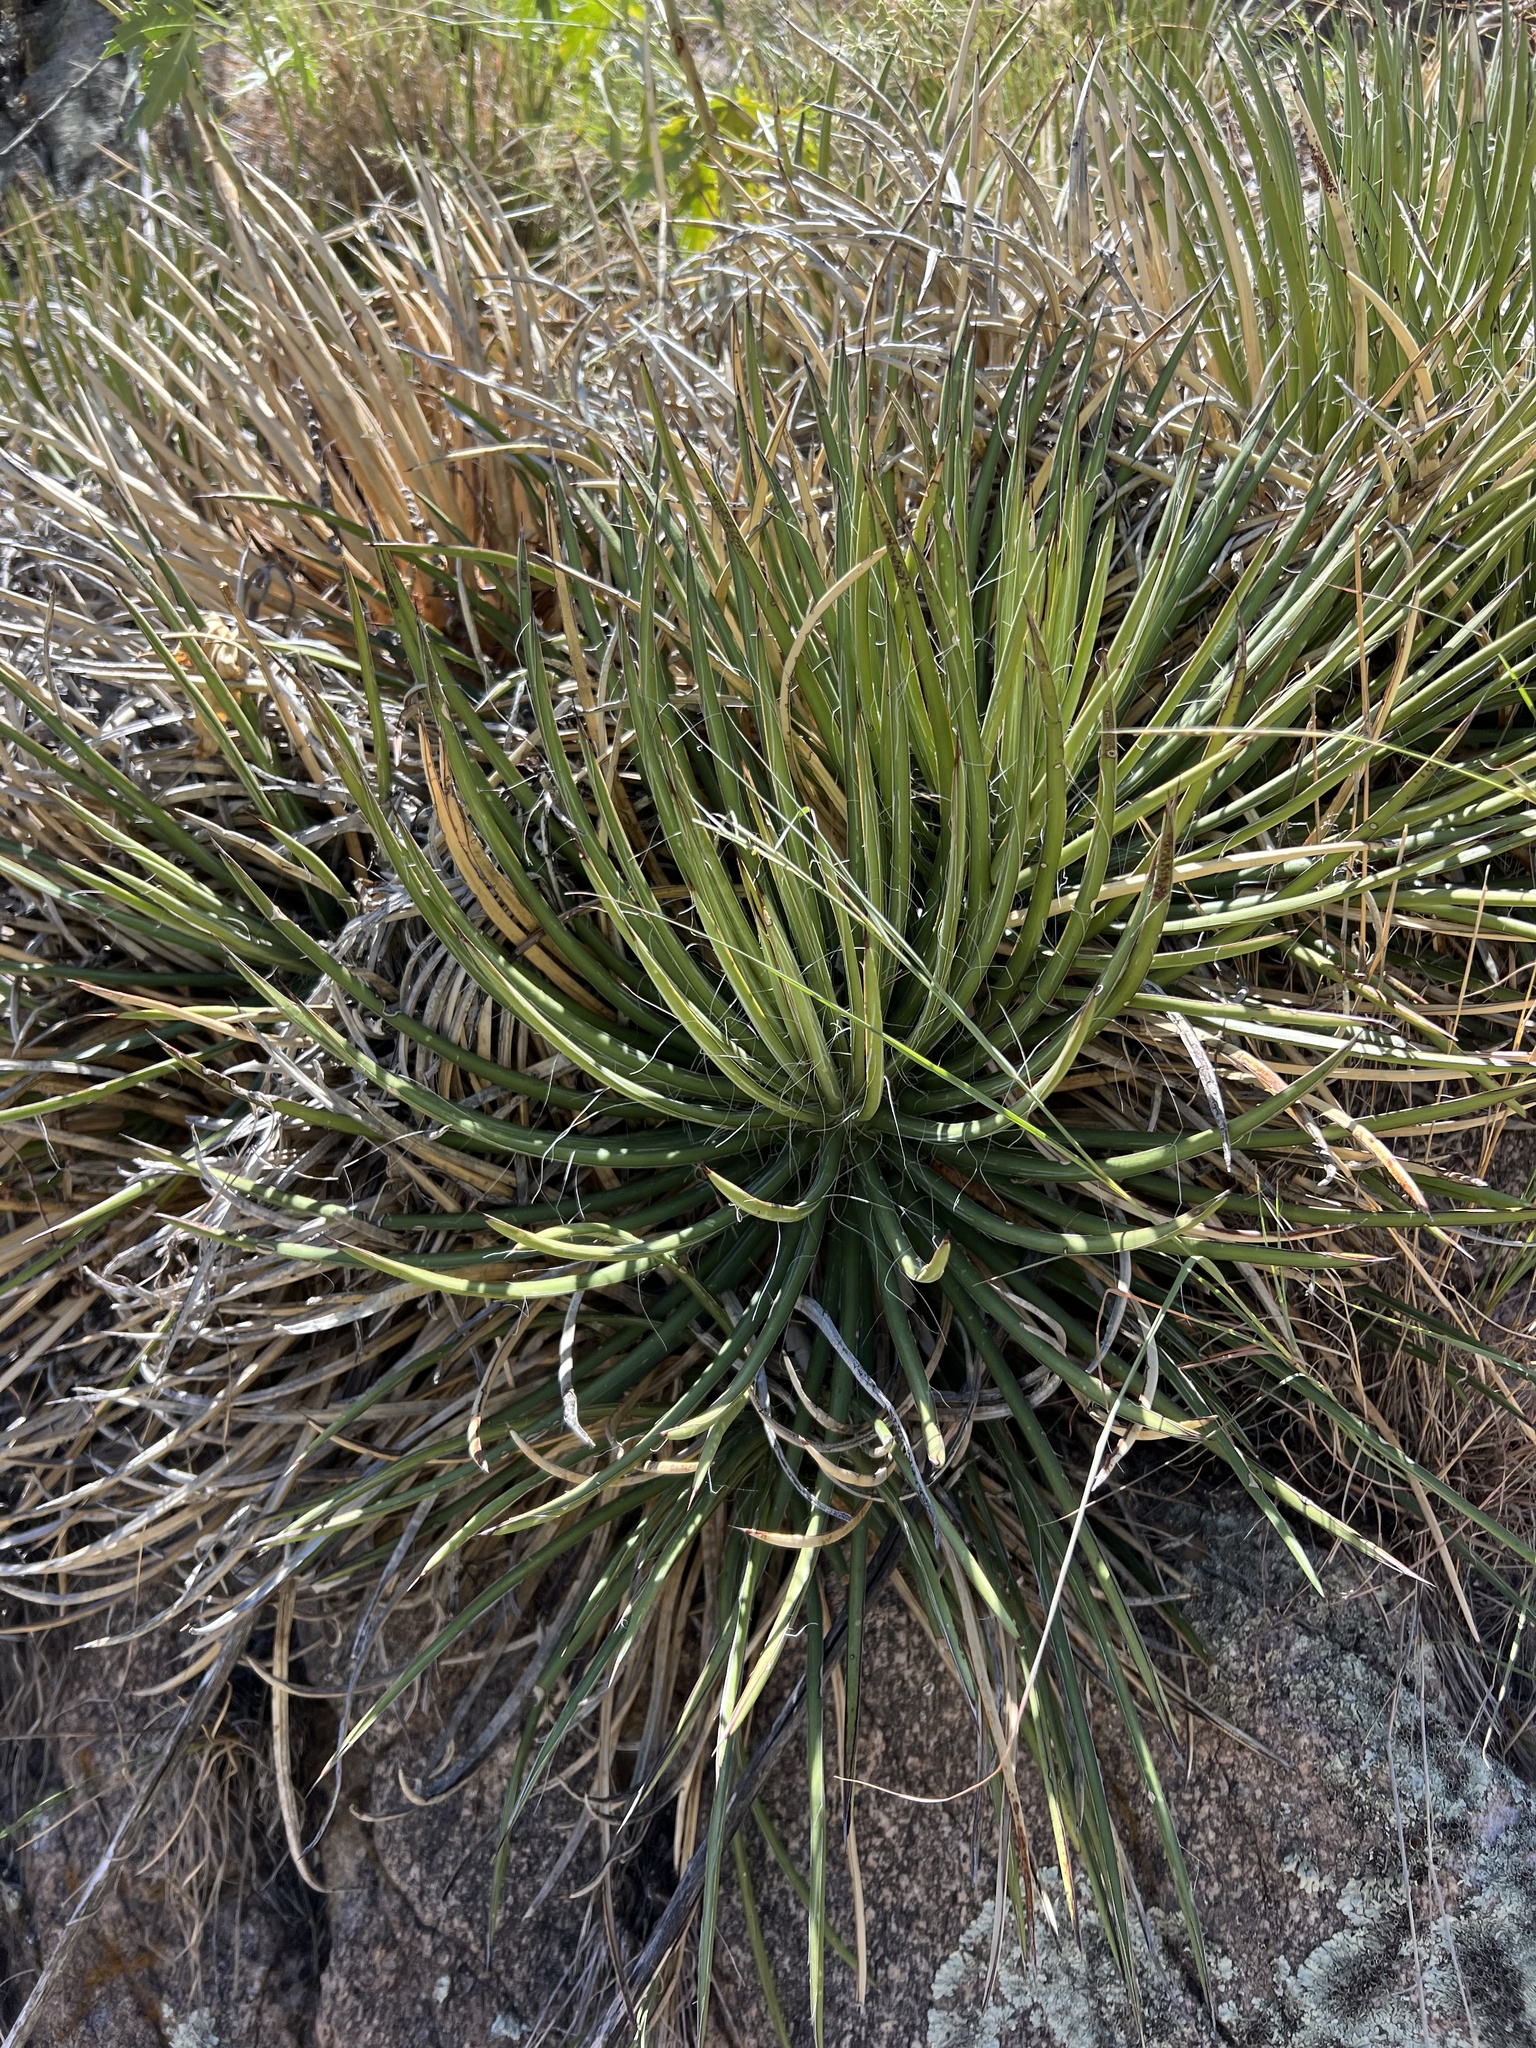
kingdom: Plantae
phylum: Tracheophyta
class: Liliopsida
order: Asparagales
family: Asparagaceae
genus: Agave
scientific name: Agave schottii
